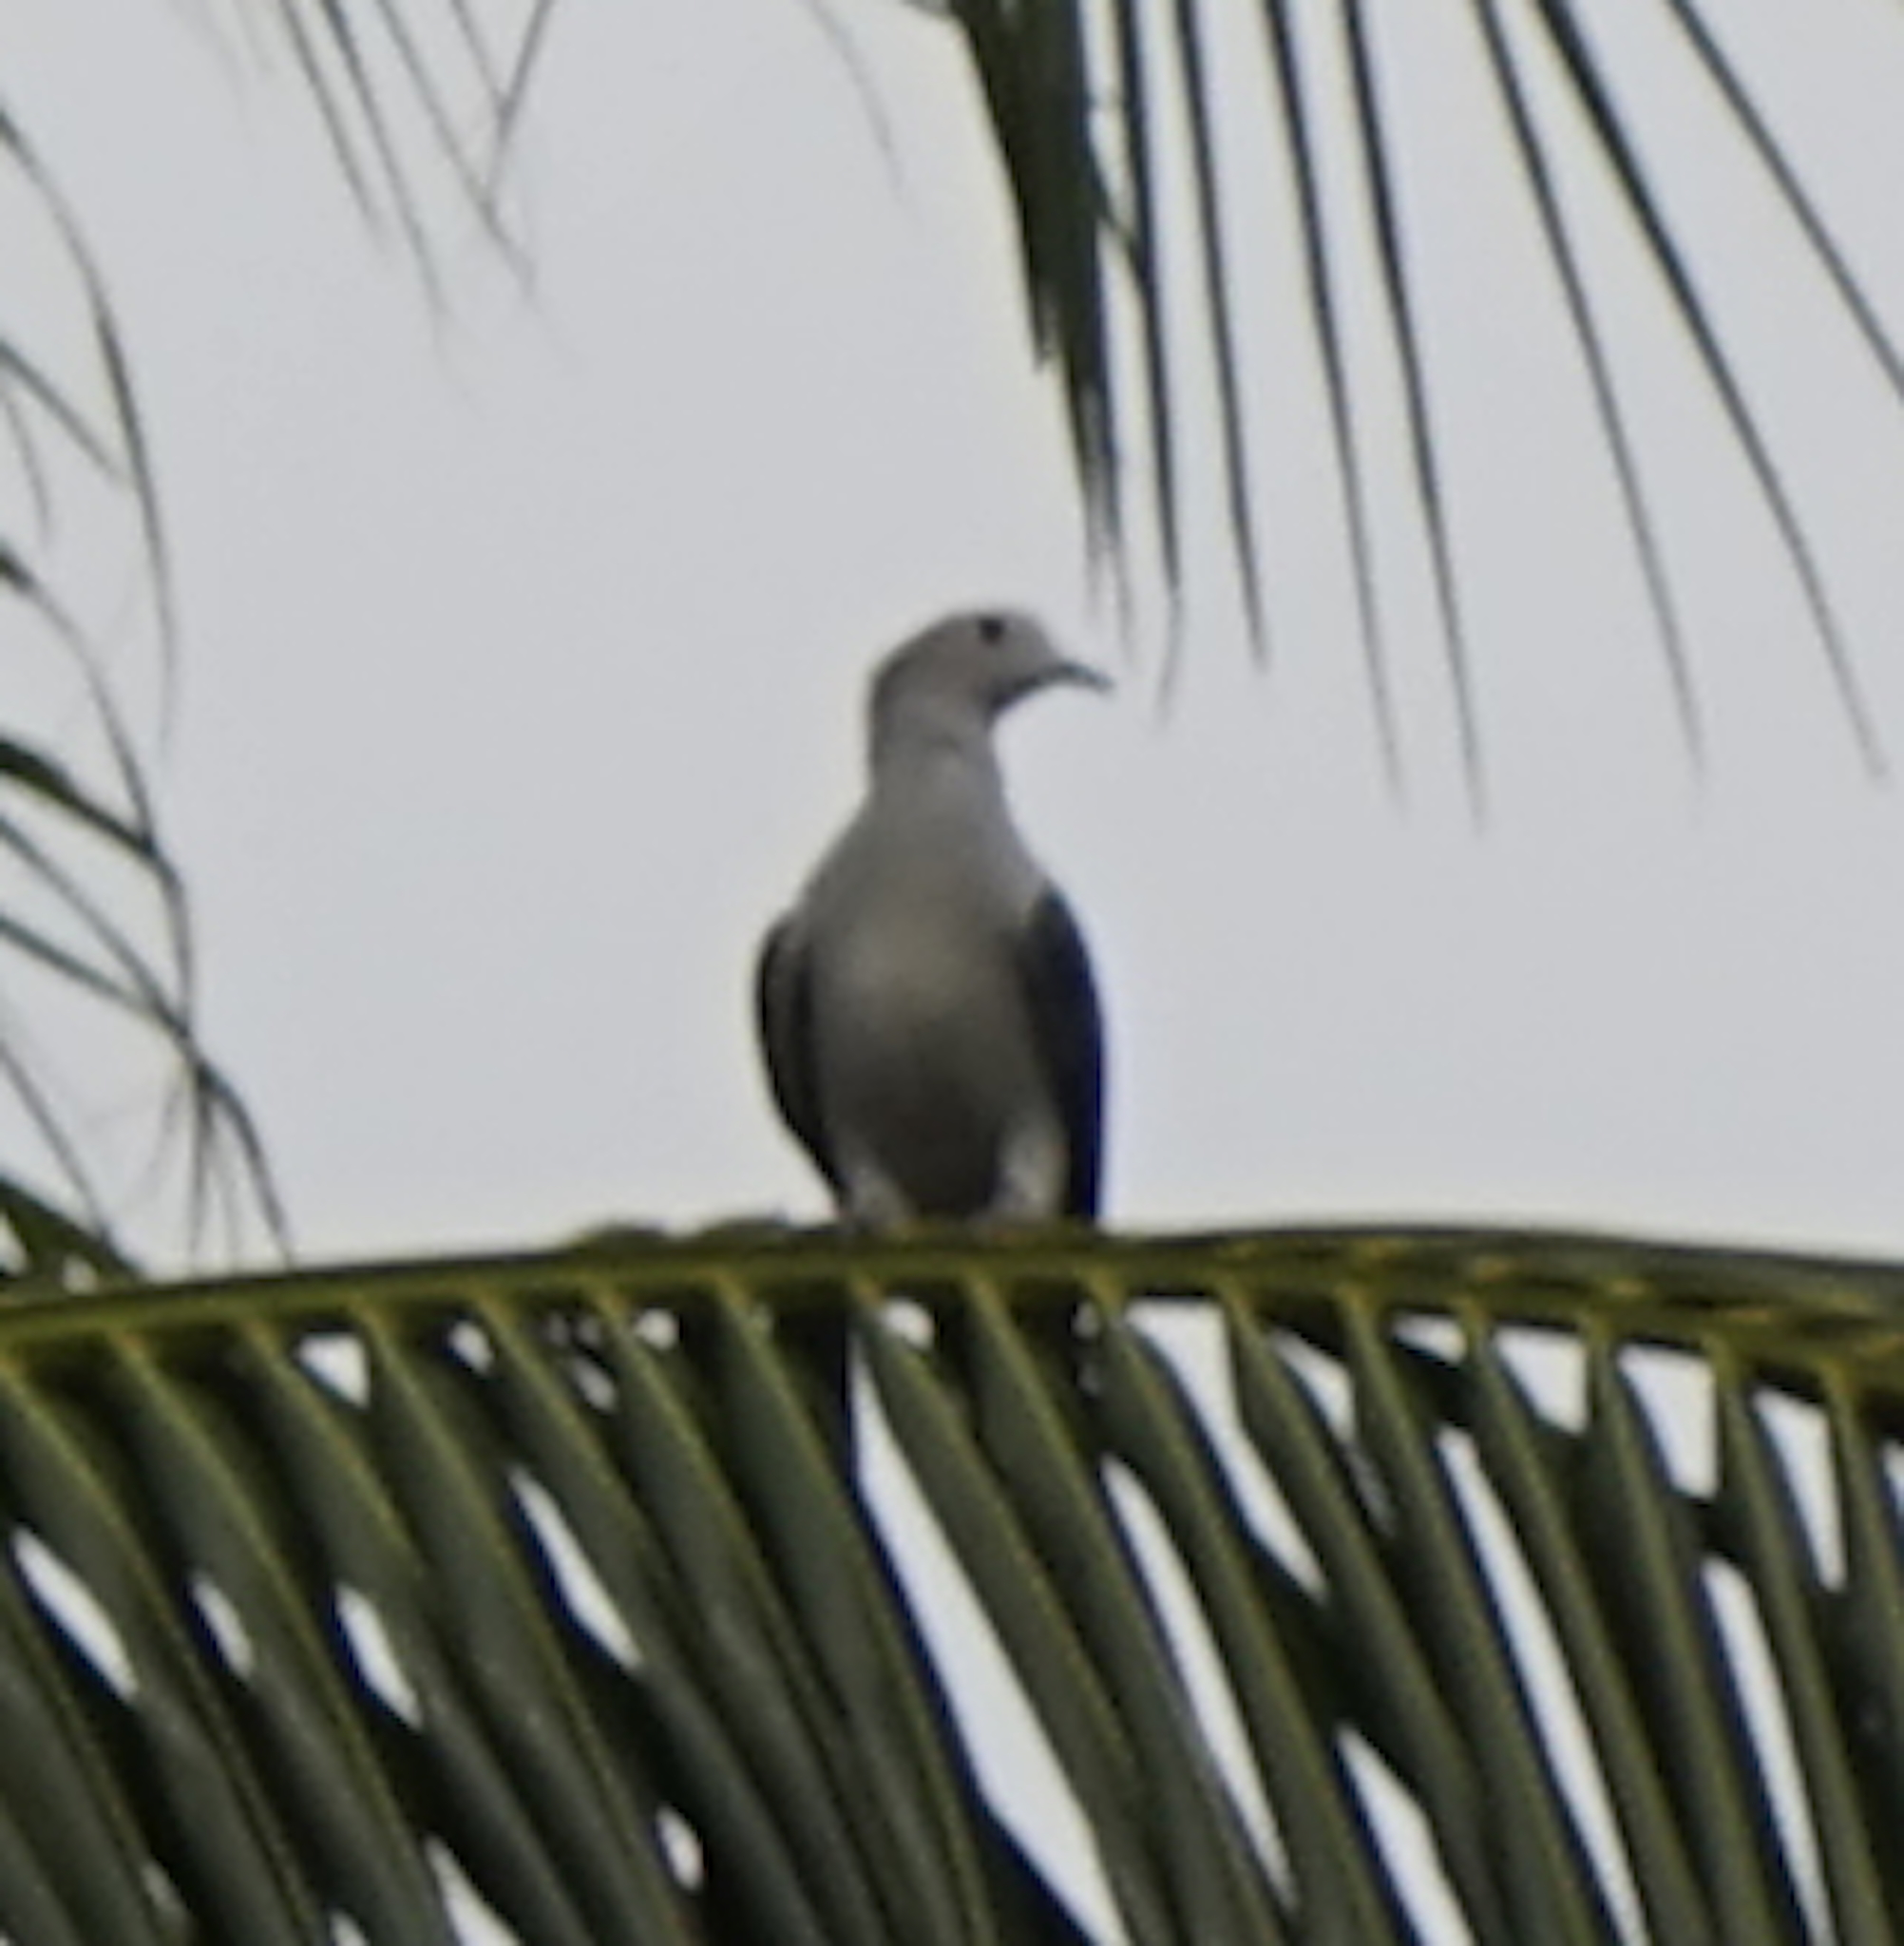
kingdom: Animalia
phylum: Chordata
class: Aves
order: Columbiformes
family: Columbidae
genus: Ducula
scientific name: Ducula aenea
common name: Green imperial pigeon
